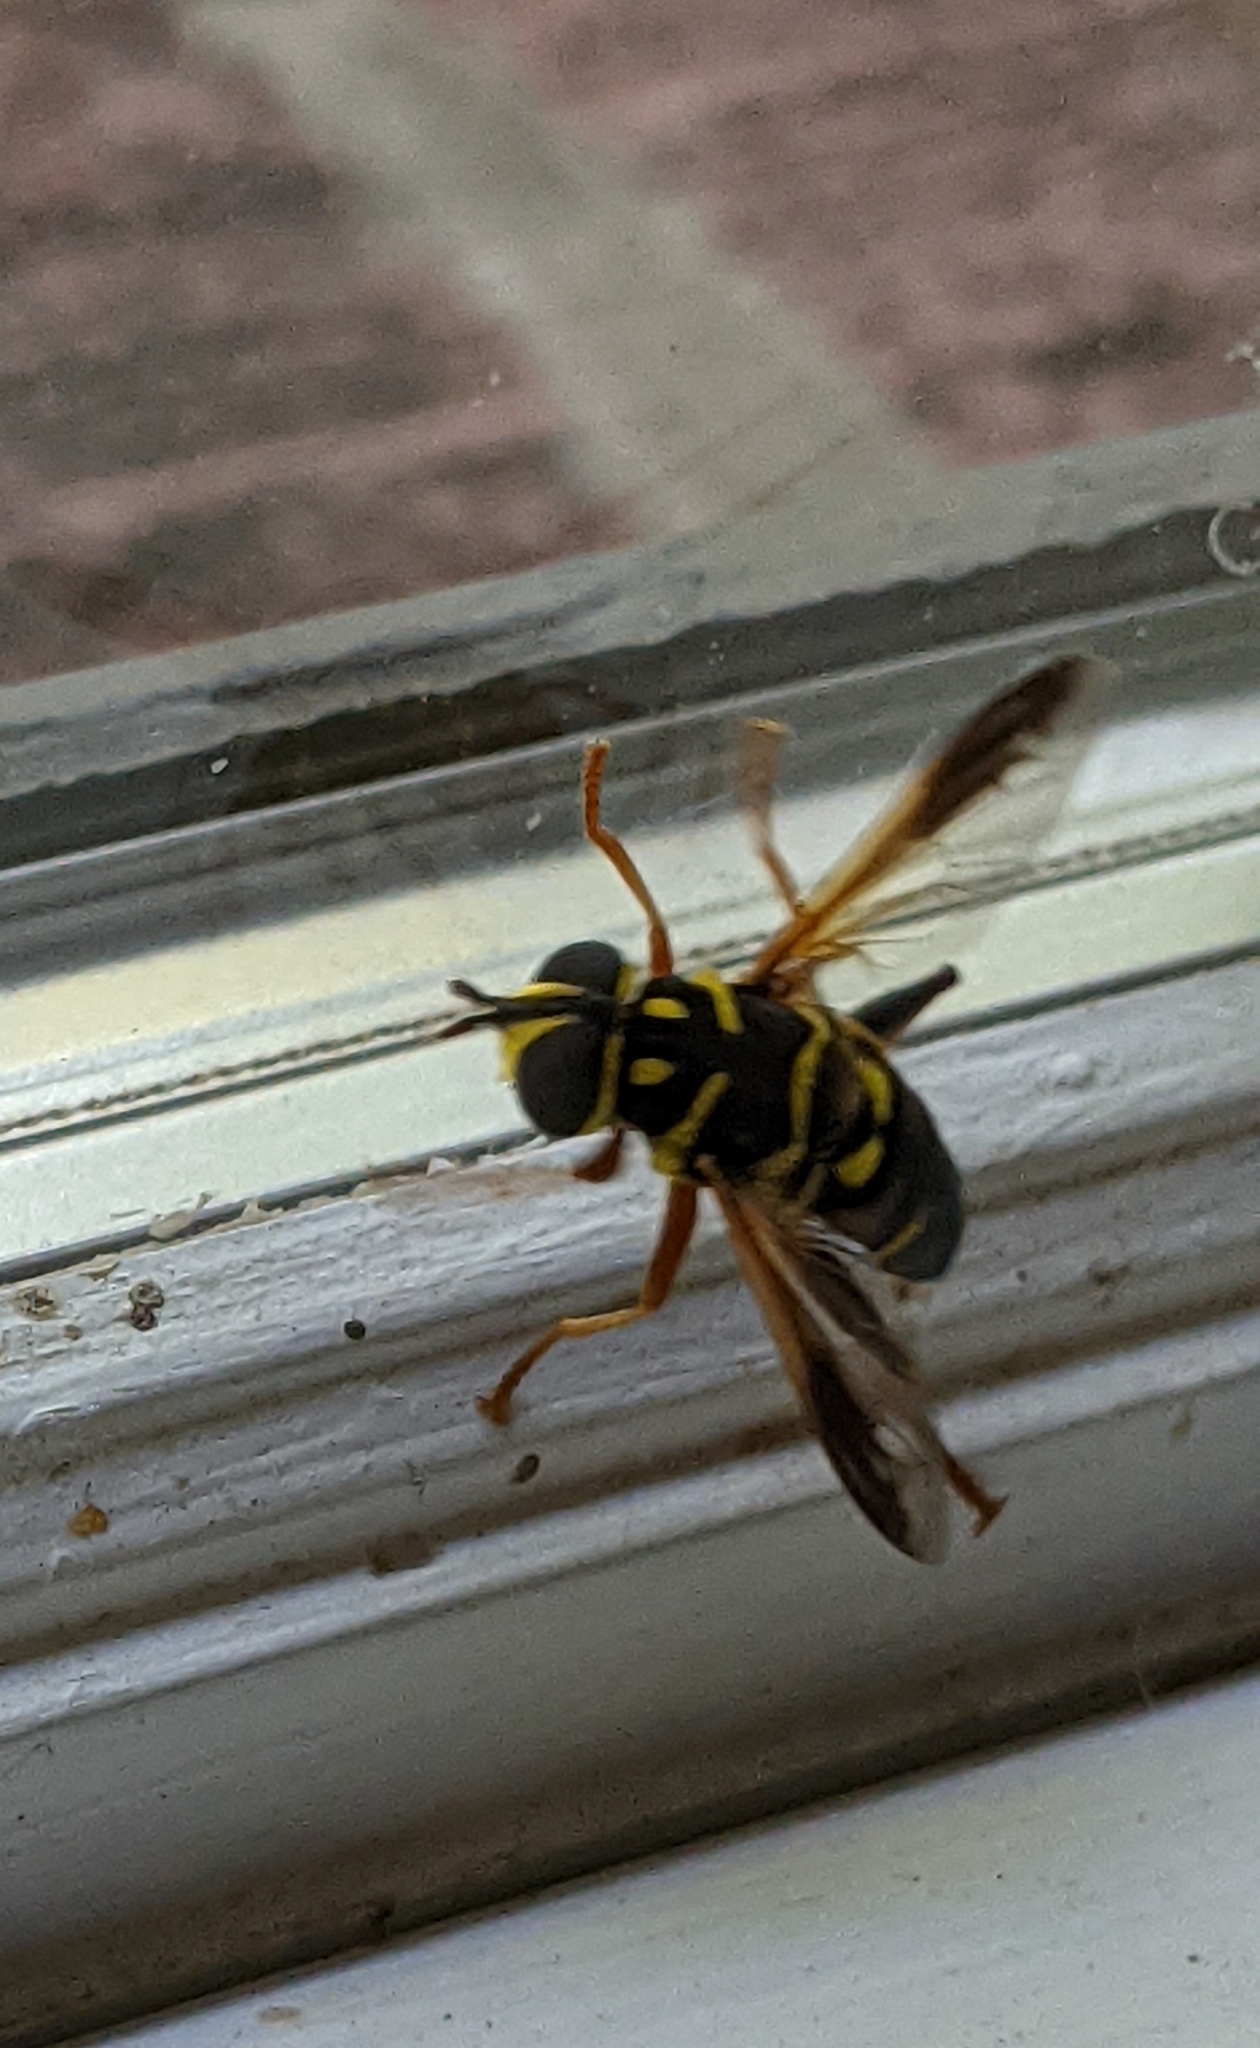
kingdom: Animalia
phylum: Arthropoda
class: Insecta
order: Diptera
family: Syrphidae
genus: Meromacrus
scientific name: Meromacrus acutus
